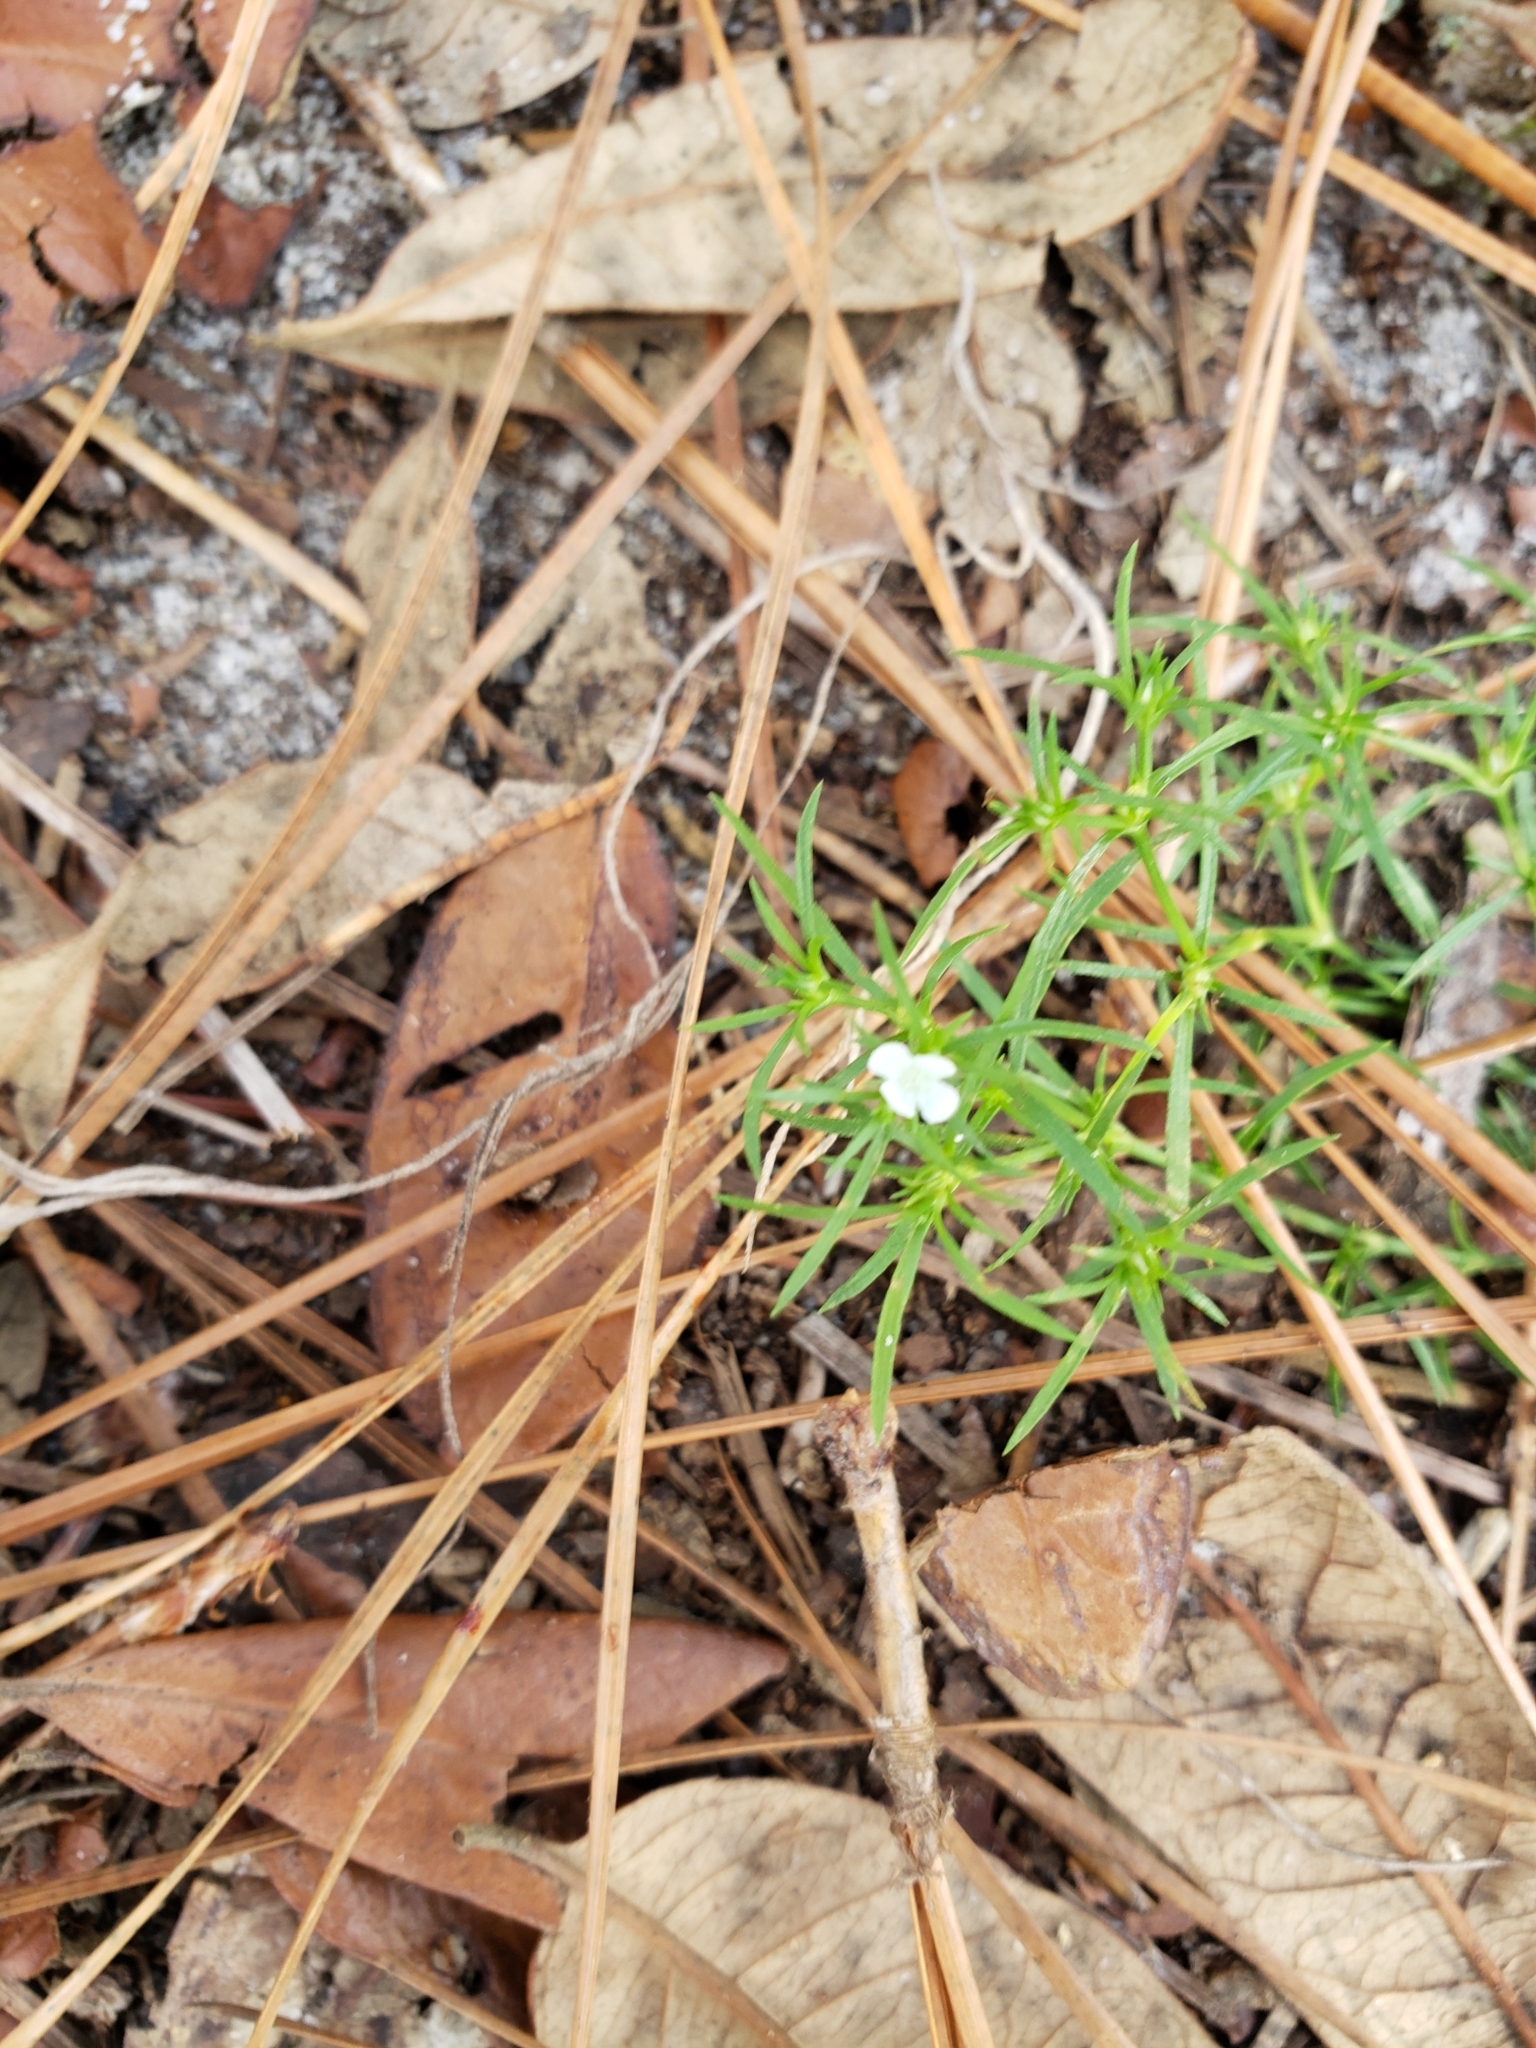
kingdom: Plantae
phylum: Tracheophyta
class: Magnoliopsida
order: Lamiales
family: Tetrachondraceae
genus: Polypremum
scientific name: Polypremum procumbens
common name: Juniper-leaf
